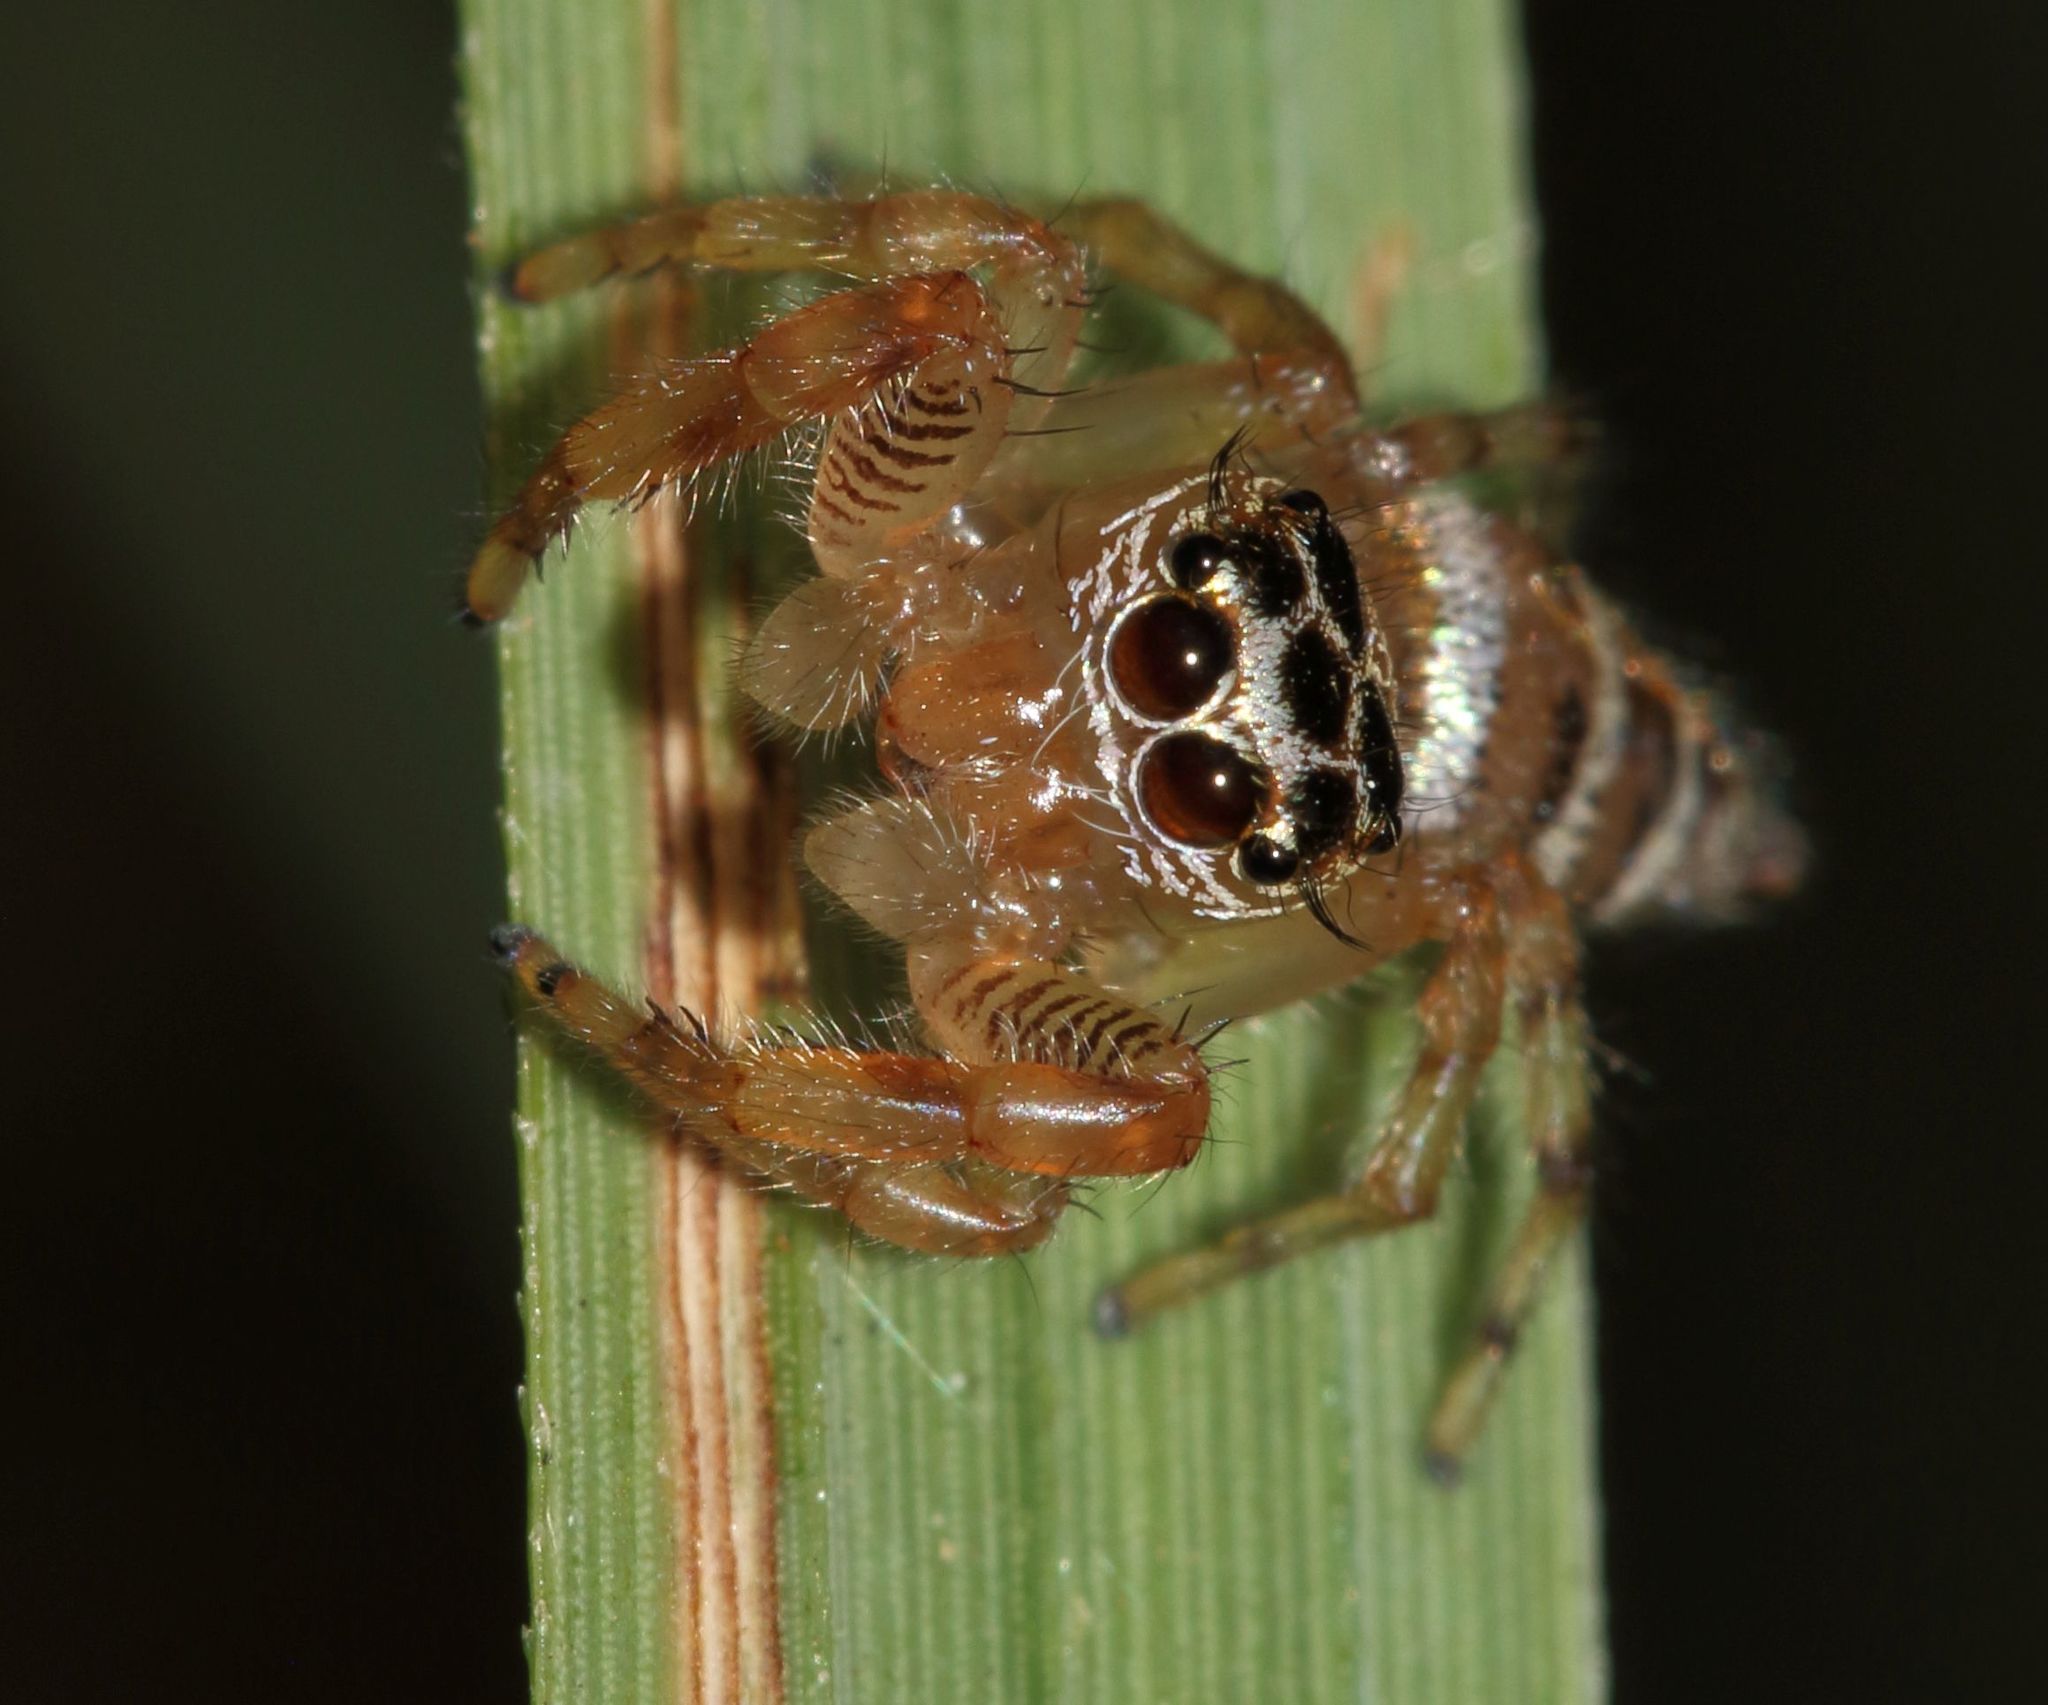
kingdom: Animalia
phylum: Arthropoda
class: Arachnida
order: Araneae
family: Salticidae
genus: Thyene
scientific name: Thyene natalii
